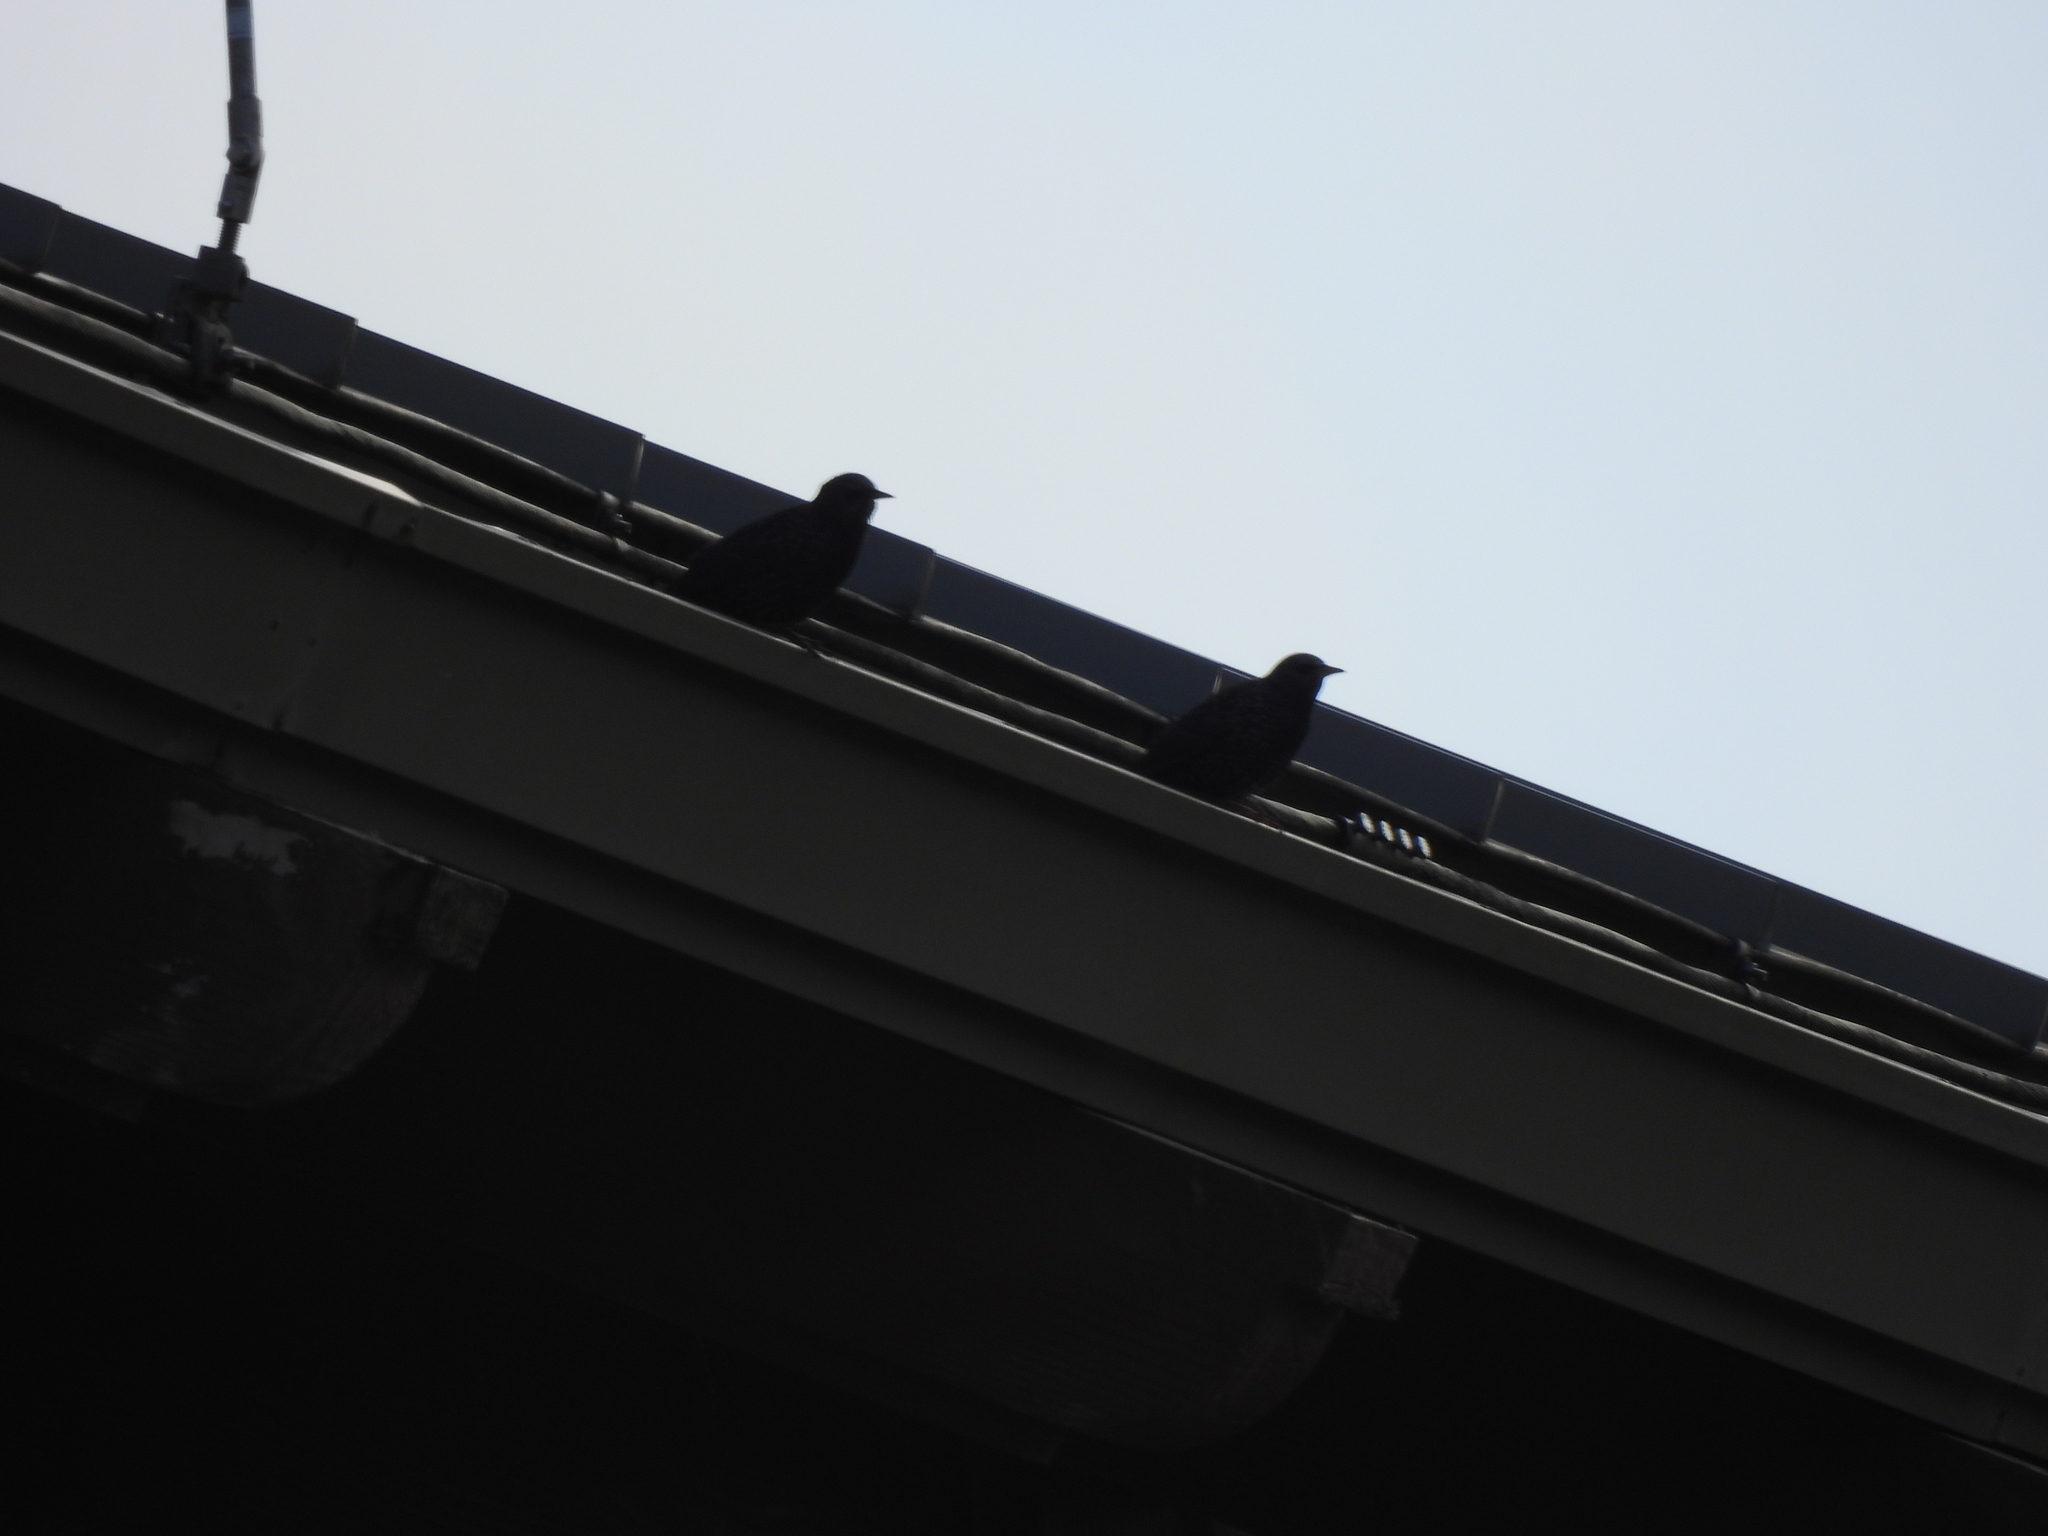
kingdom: Animalia
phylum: Chordata
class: Aves
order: Passeriformes
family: Sturnidae
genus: Sturnus
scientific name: Sturnus vulgaris
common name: Common starling
